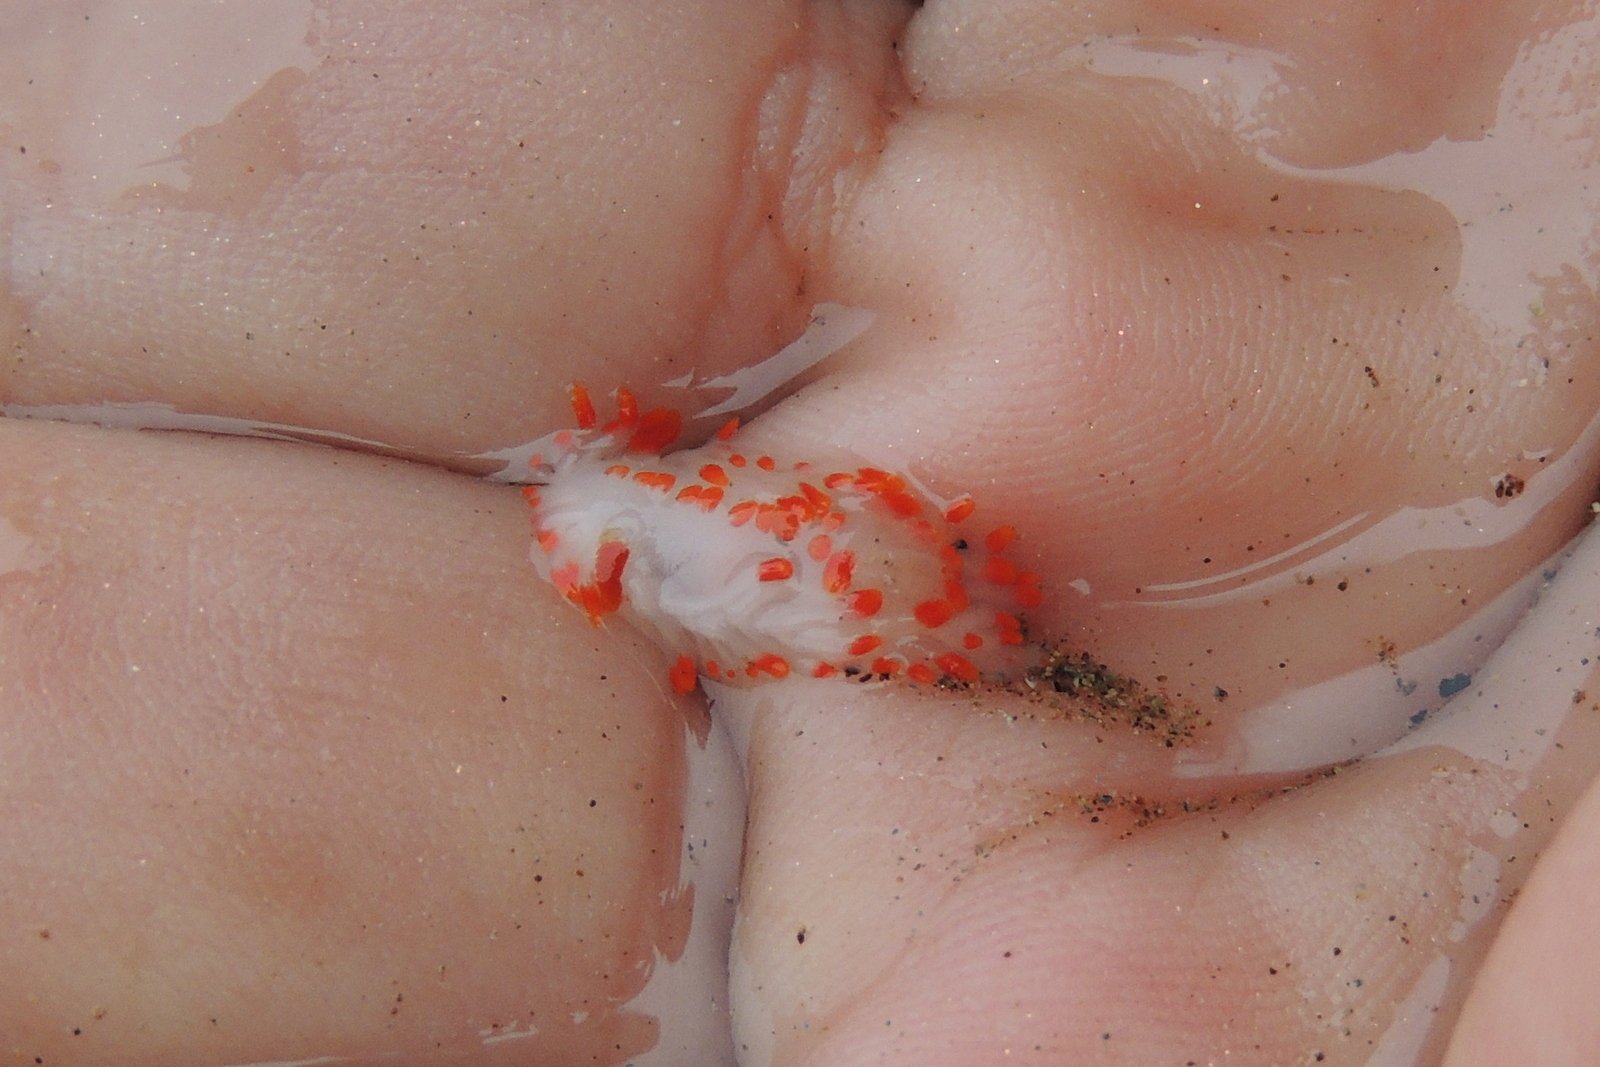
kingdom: Animalia
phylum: Mollusca
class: Gastropoda
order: Nudibranchia
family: Polyceridae
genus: Limacia
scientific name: Limacia mcdonaldi
